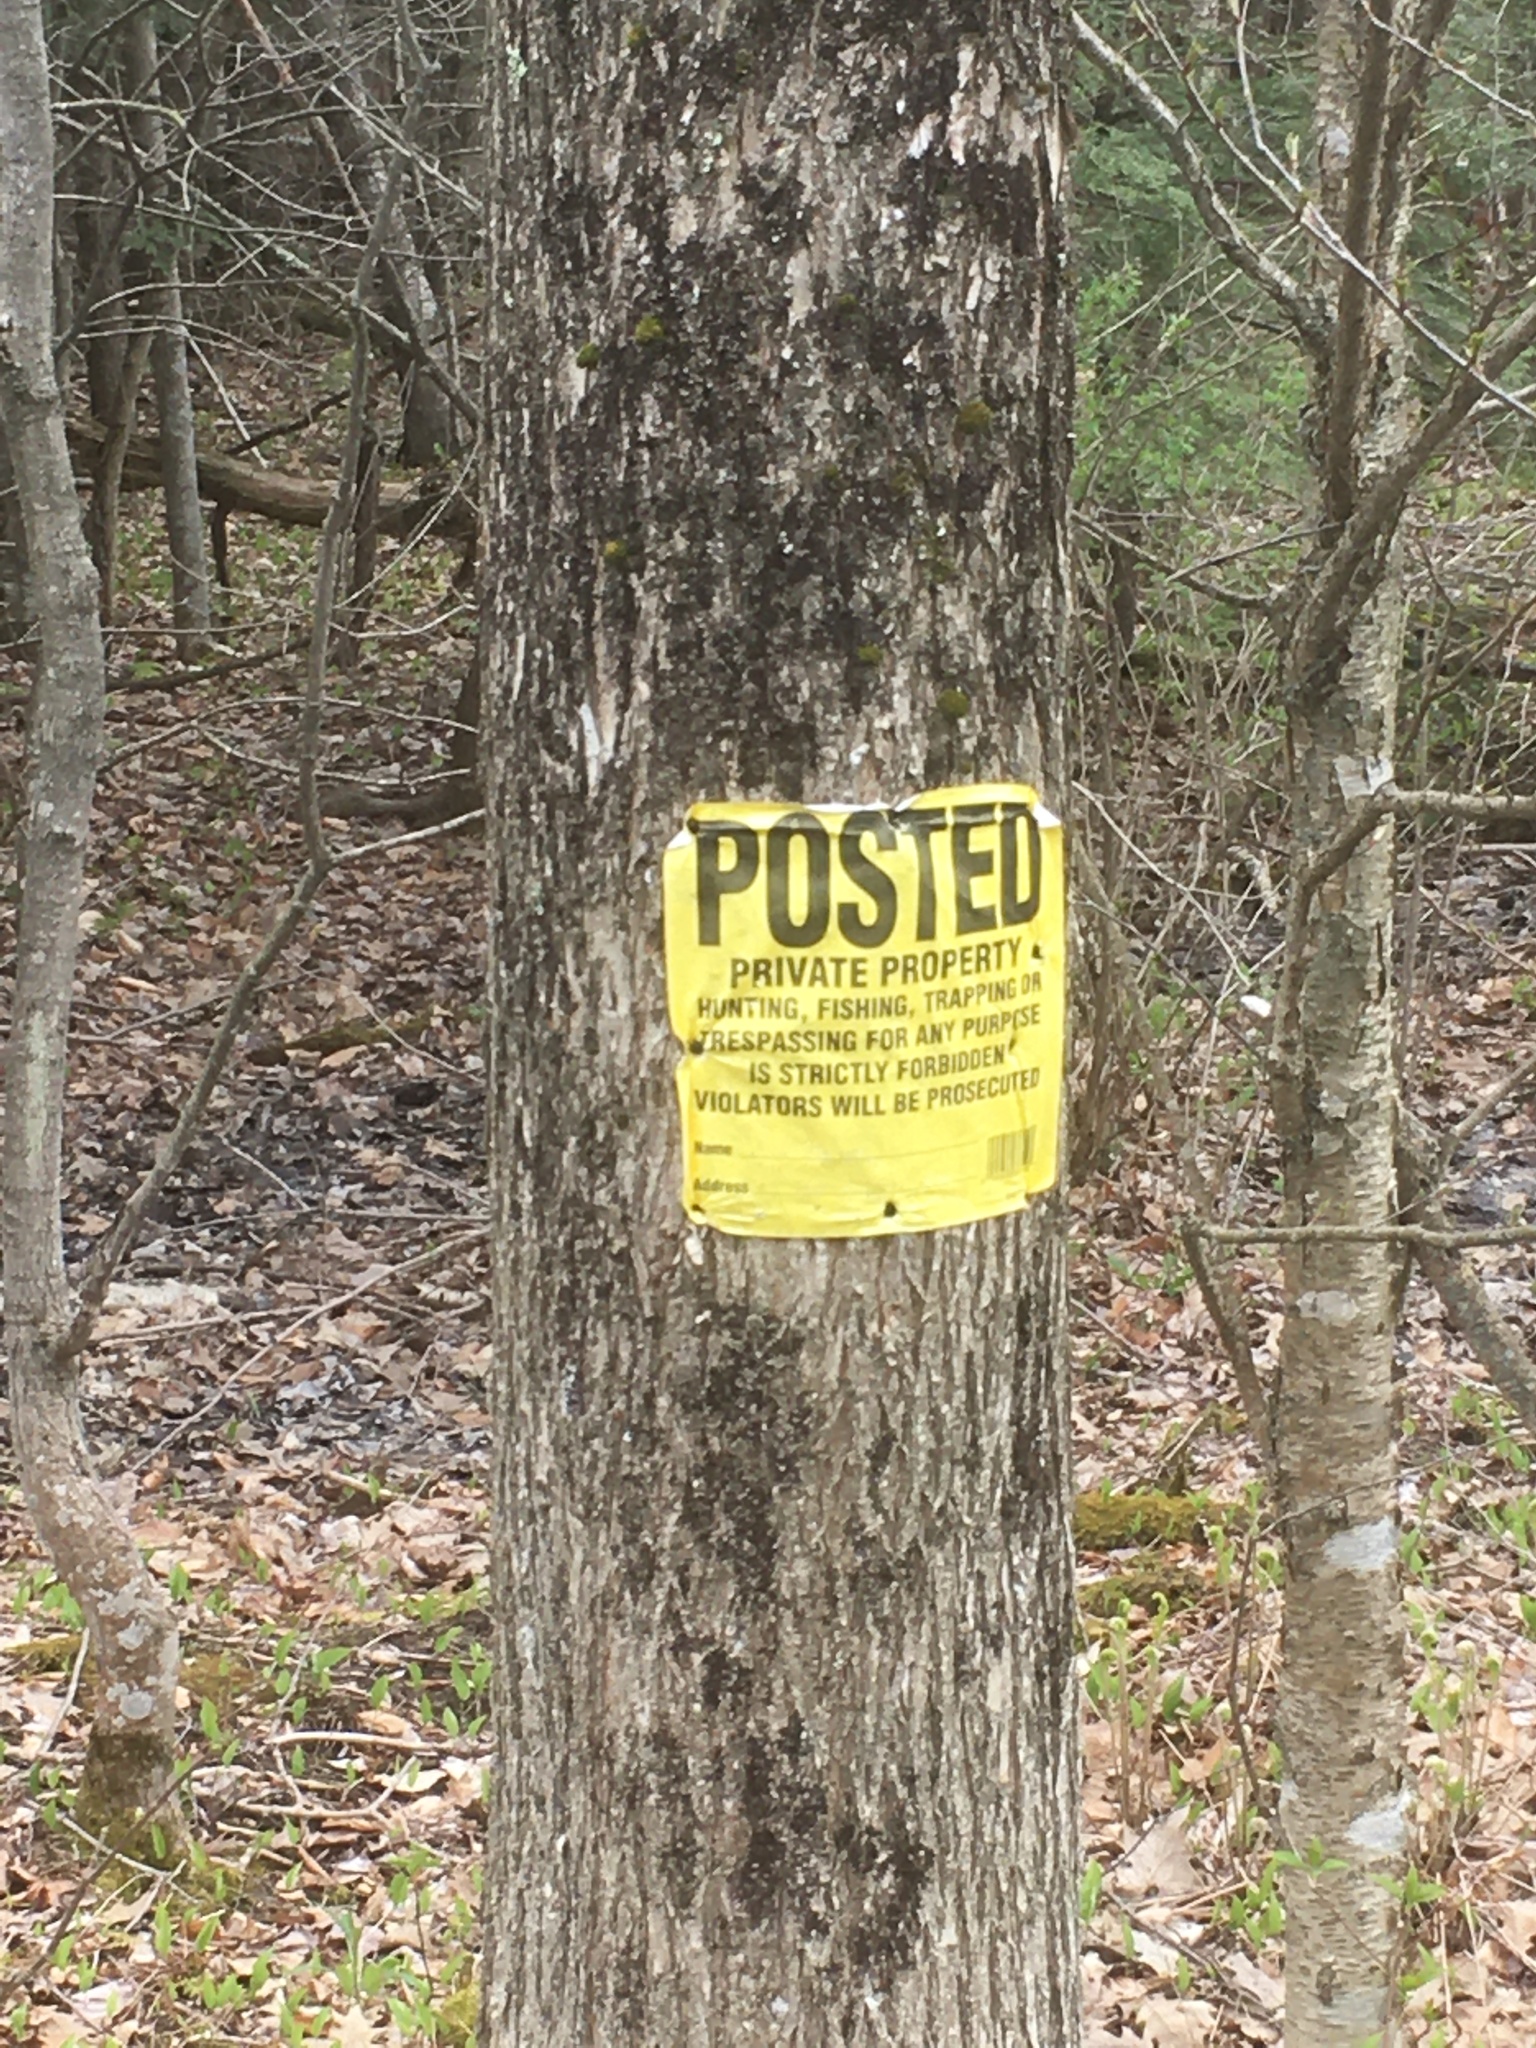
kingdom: Plantae
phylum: Tracheophyta
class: Magnoliopsida
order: Rosales
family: Ulmaceae
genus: Ulmus
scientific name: Ulmus americana
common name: American elm
